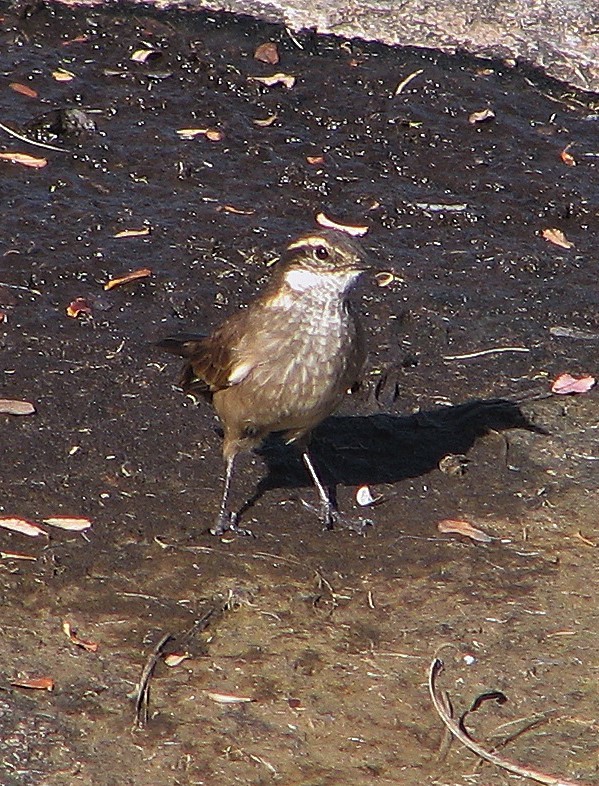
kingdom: Animalia
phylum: Chordata
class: Aves
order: Passeriformes
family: Furnariidae
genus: Cinclodes
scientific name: Cinclodes olrogi
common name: Olrog's cinclodes
